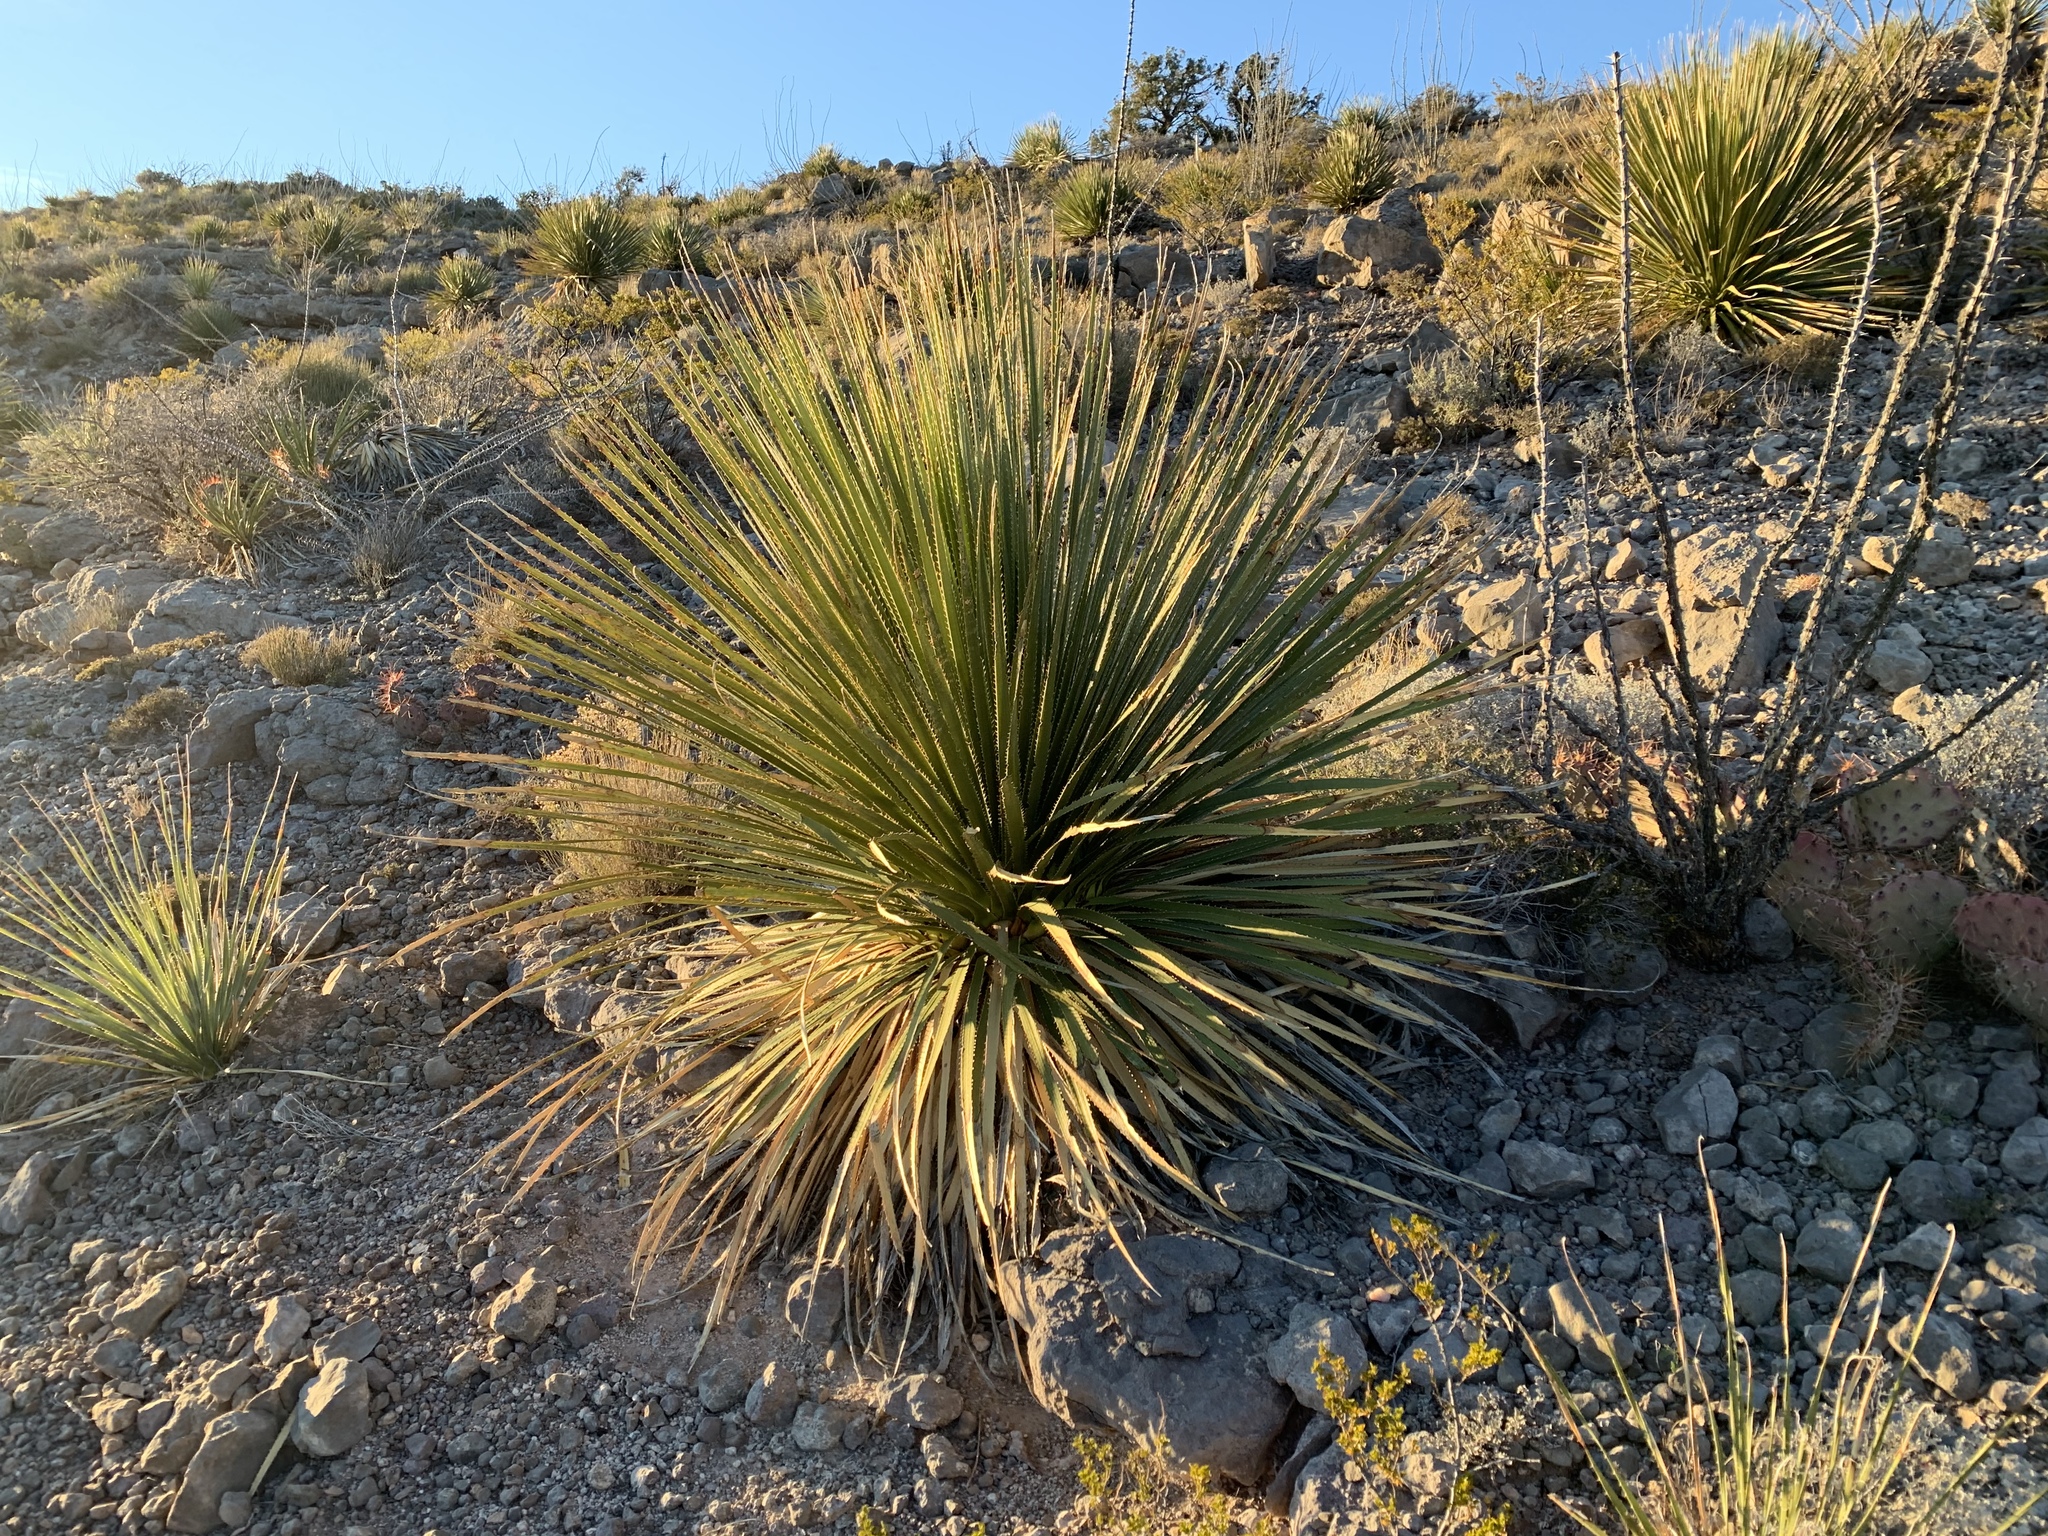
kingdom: Plantae
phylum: Tracheophyta
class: Liliopsida
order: Asparagales
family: Asparagaceae
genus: Dasylirion
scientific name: Dasylirion wheeleri
